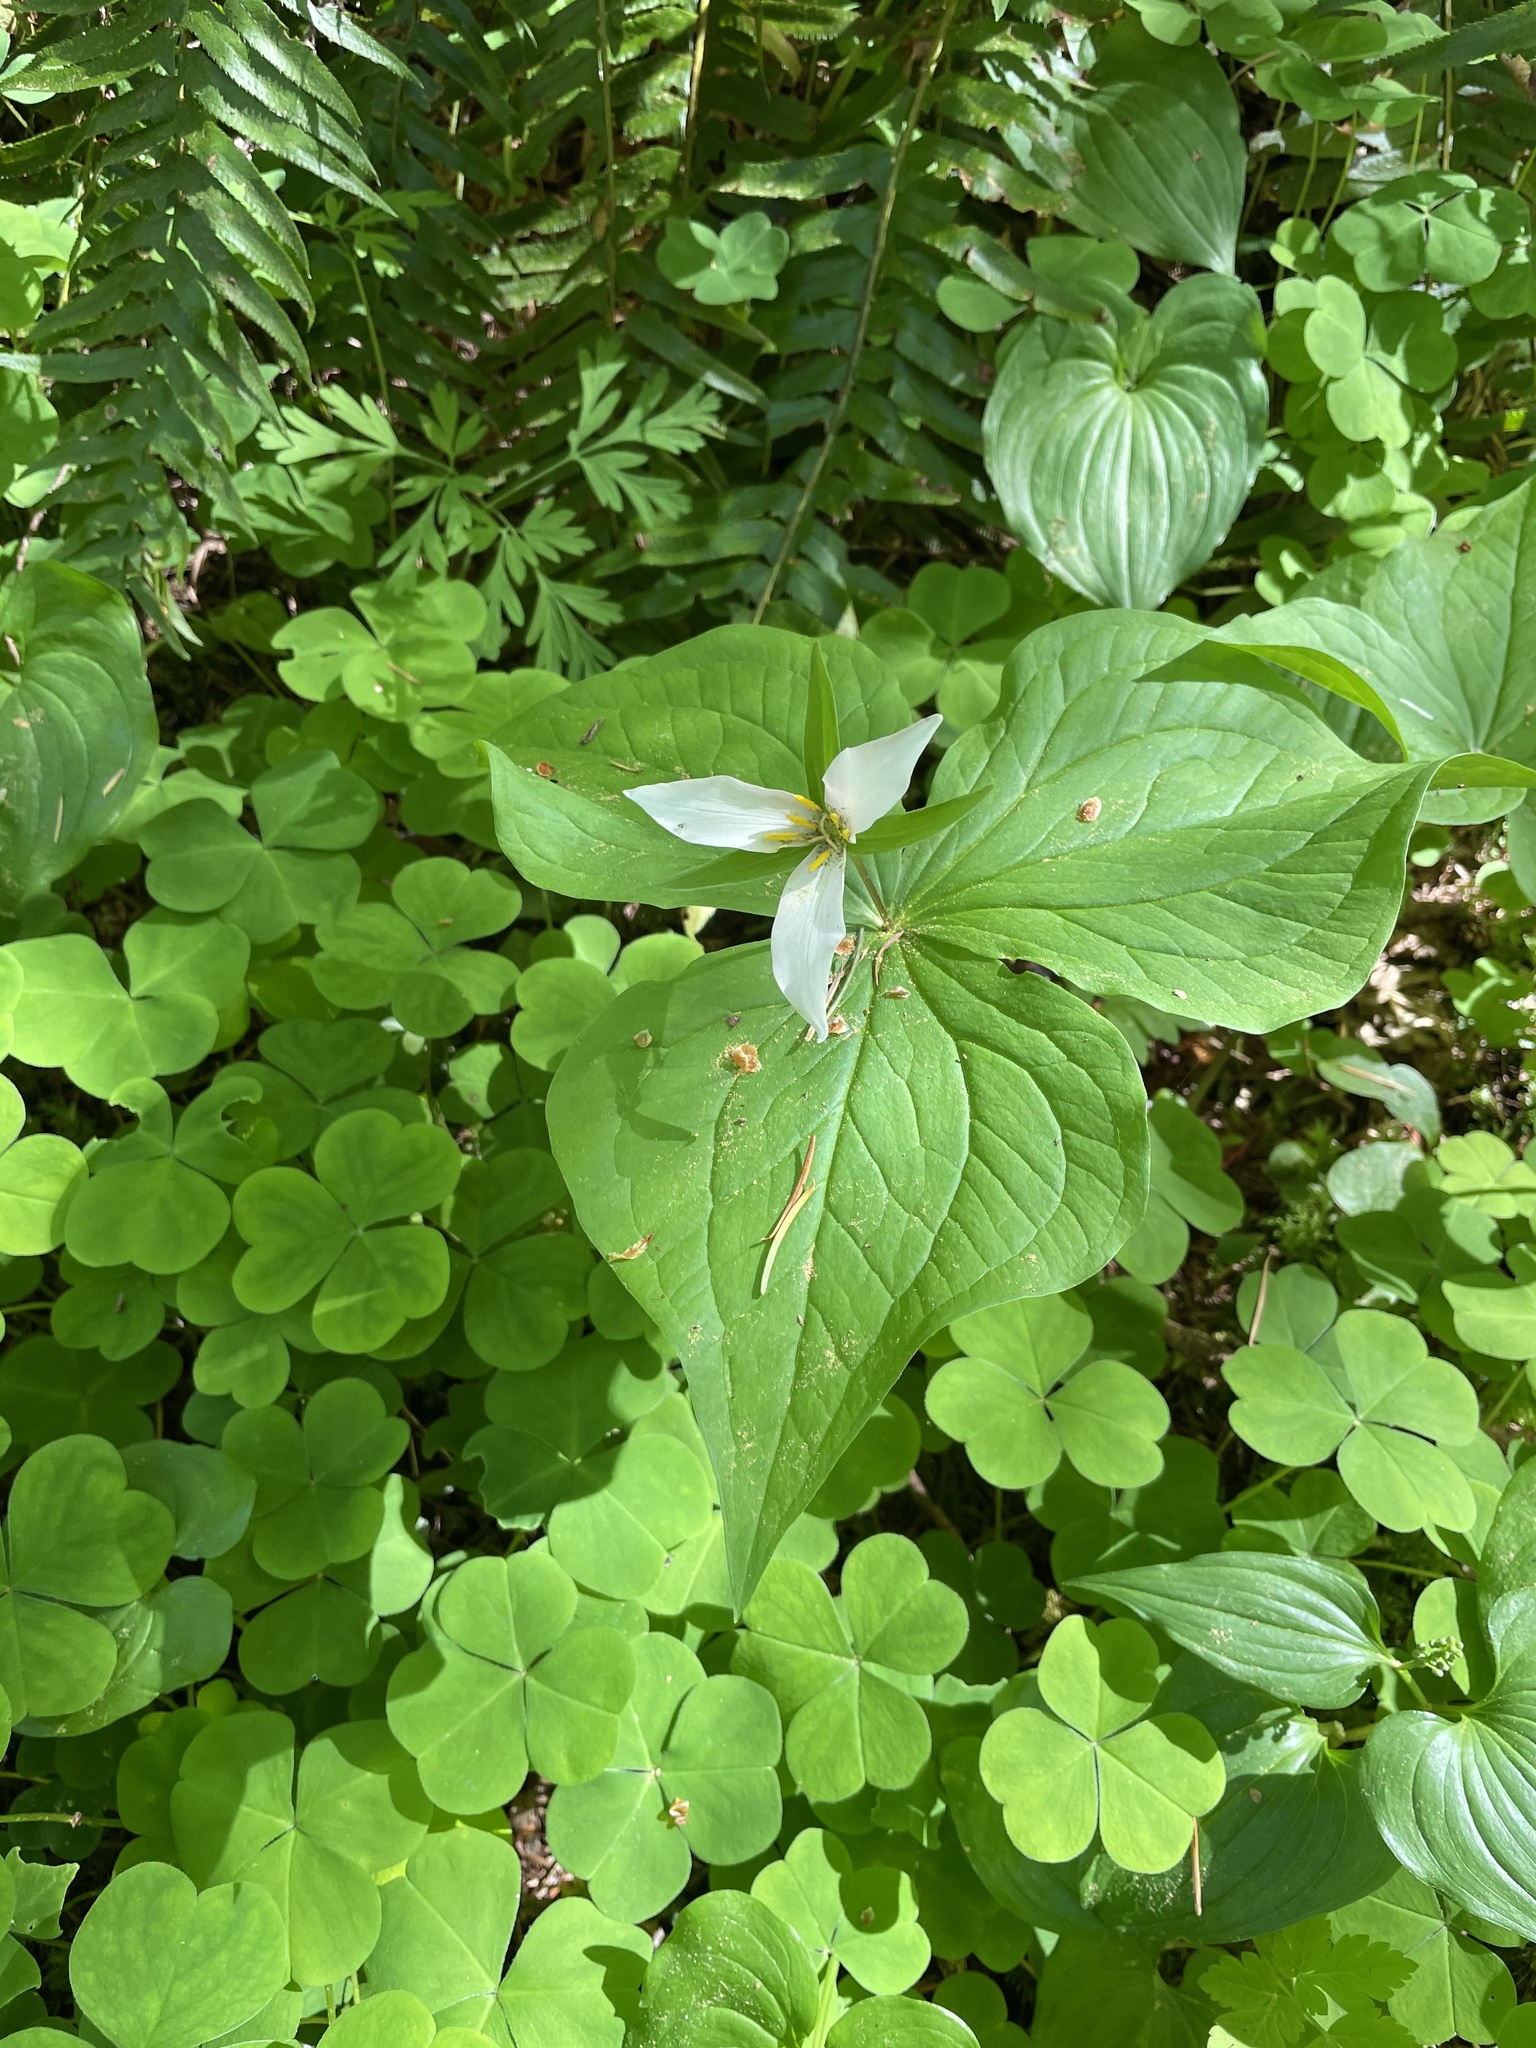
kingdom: Plantae
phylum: Tracheophyta
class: Liliopsida
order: Liliales
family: Melanthiaceae
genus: Trillium
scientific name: Trillium ovatum
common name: Pacific trillium
